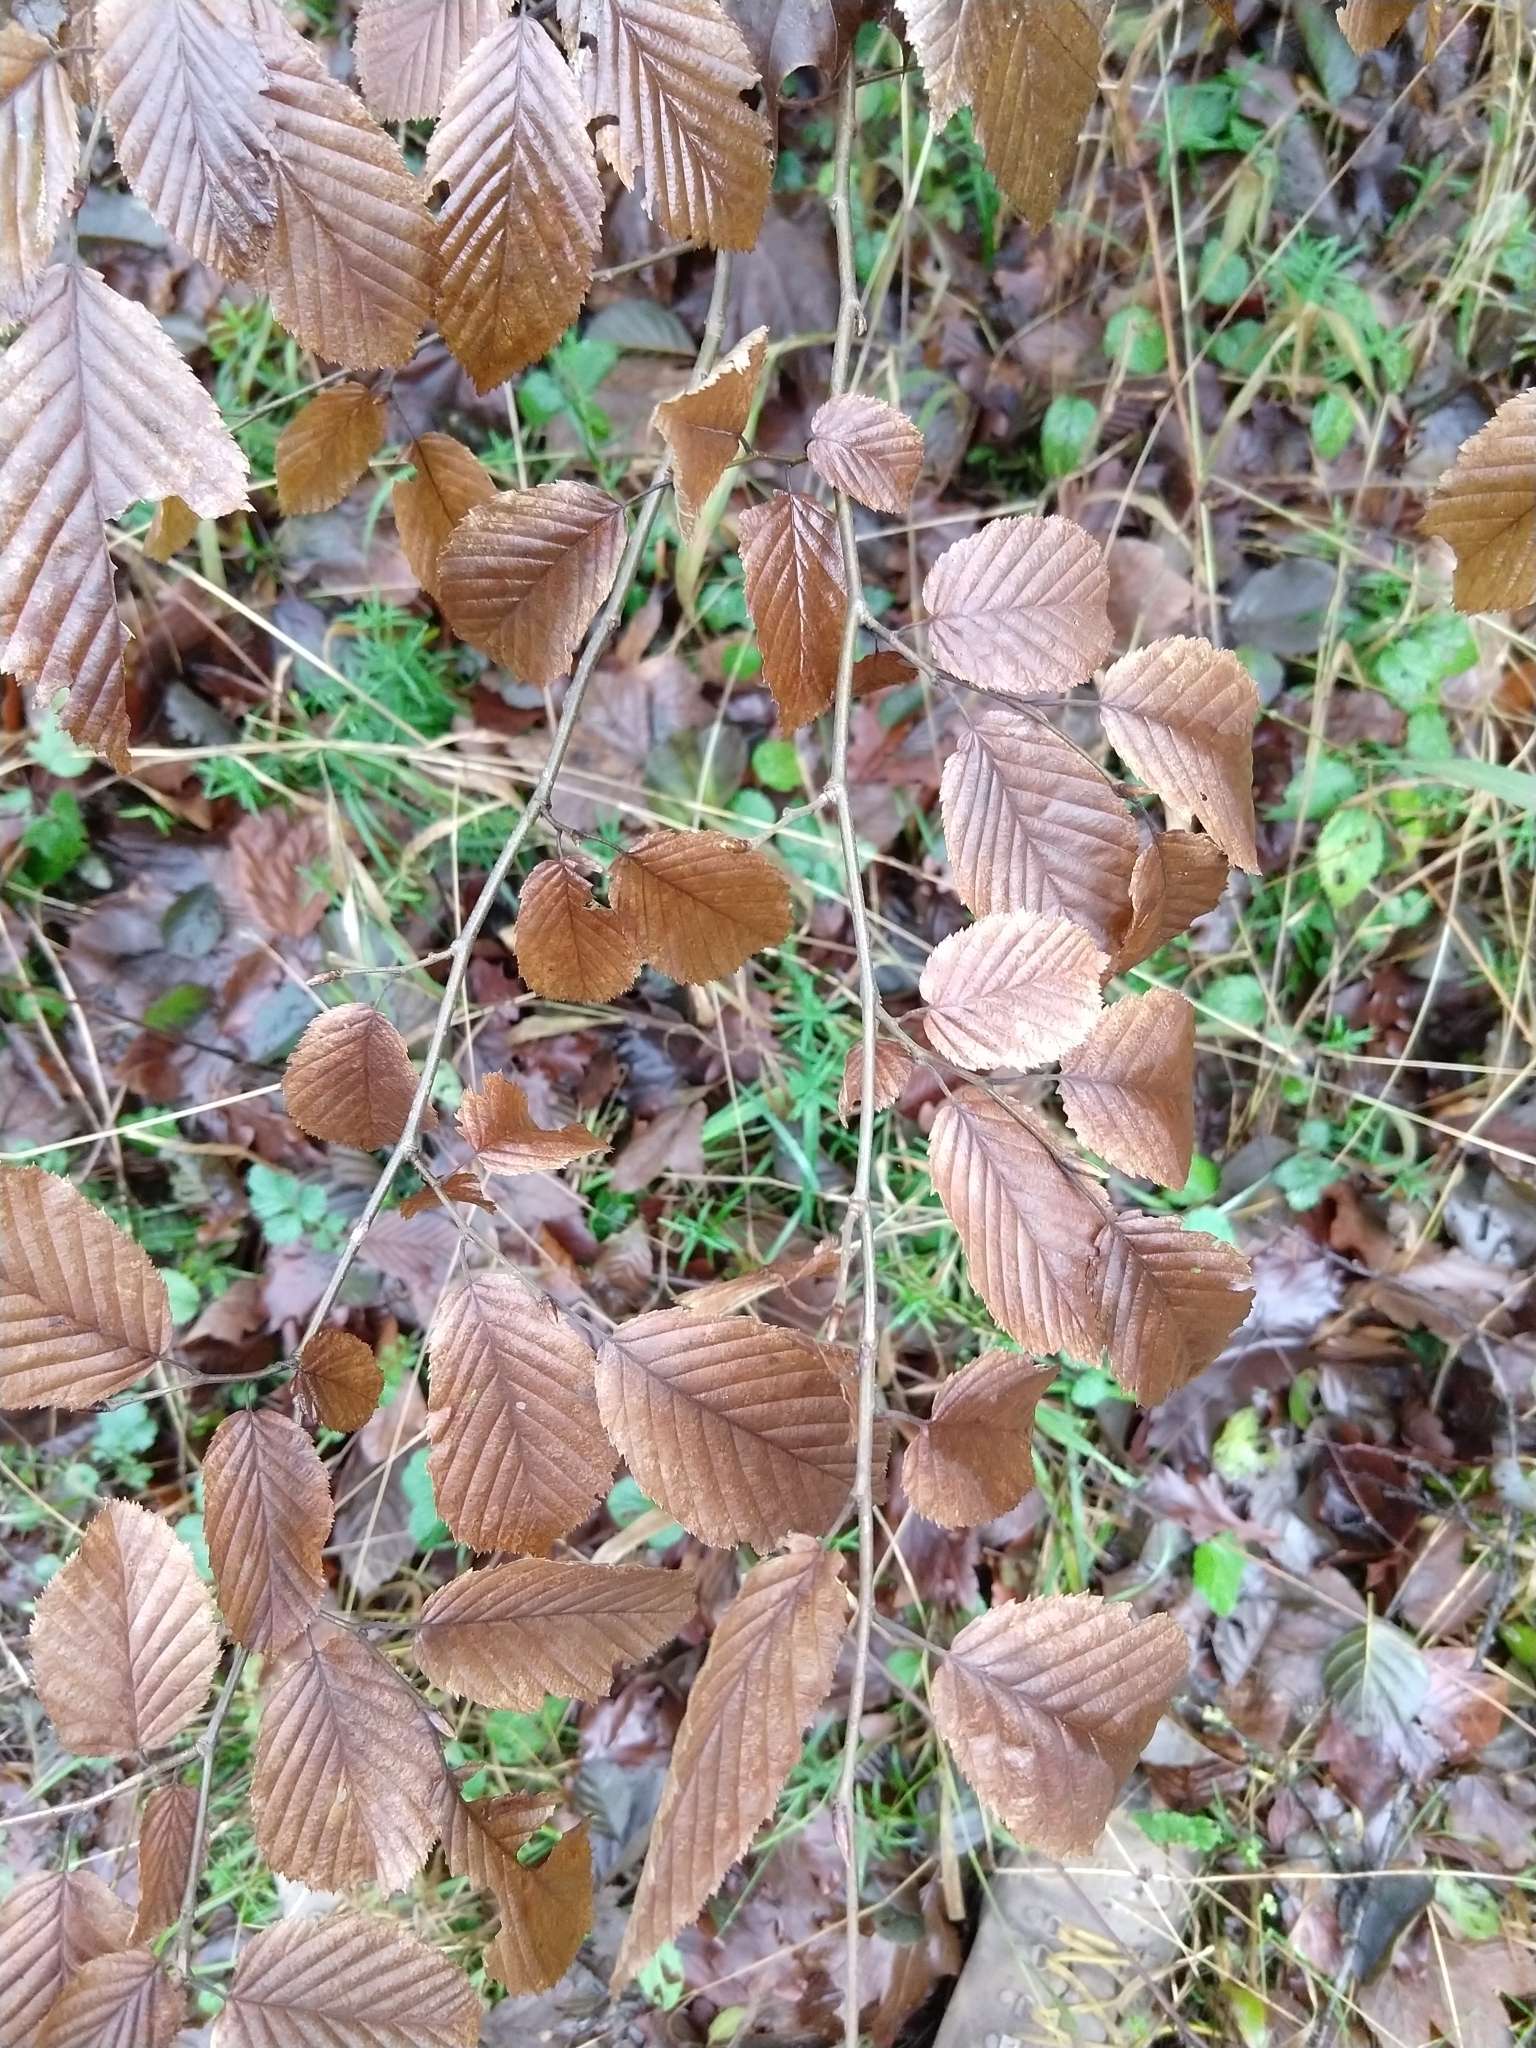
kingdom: Plantae
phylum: Tracheophyta
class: Magnoliopsida
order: Fagales
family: Betulaceae
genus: Carpinus
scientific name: Carpinus betulus
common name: Hornbeam
